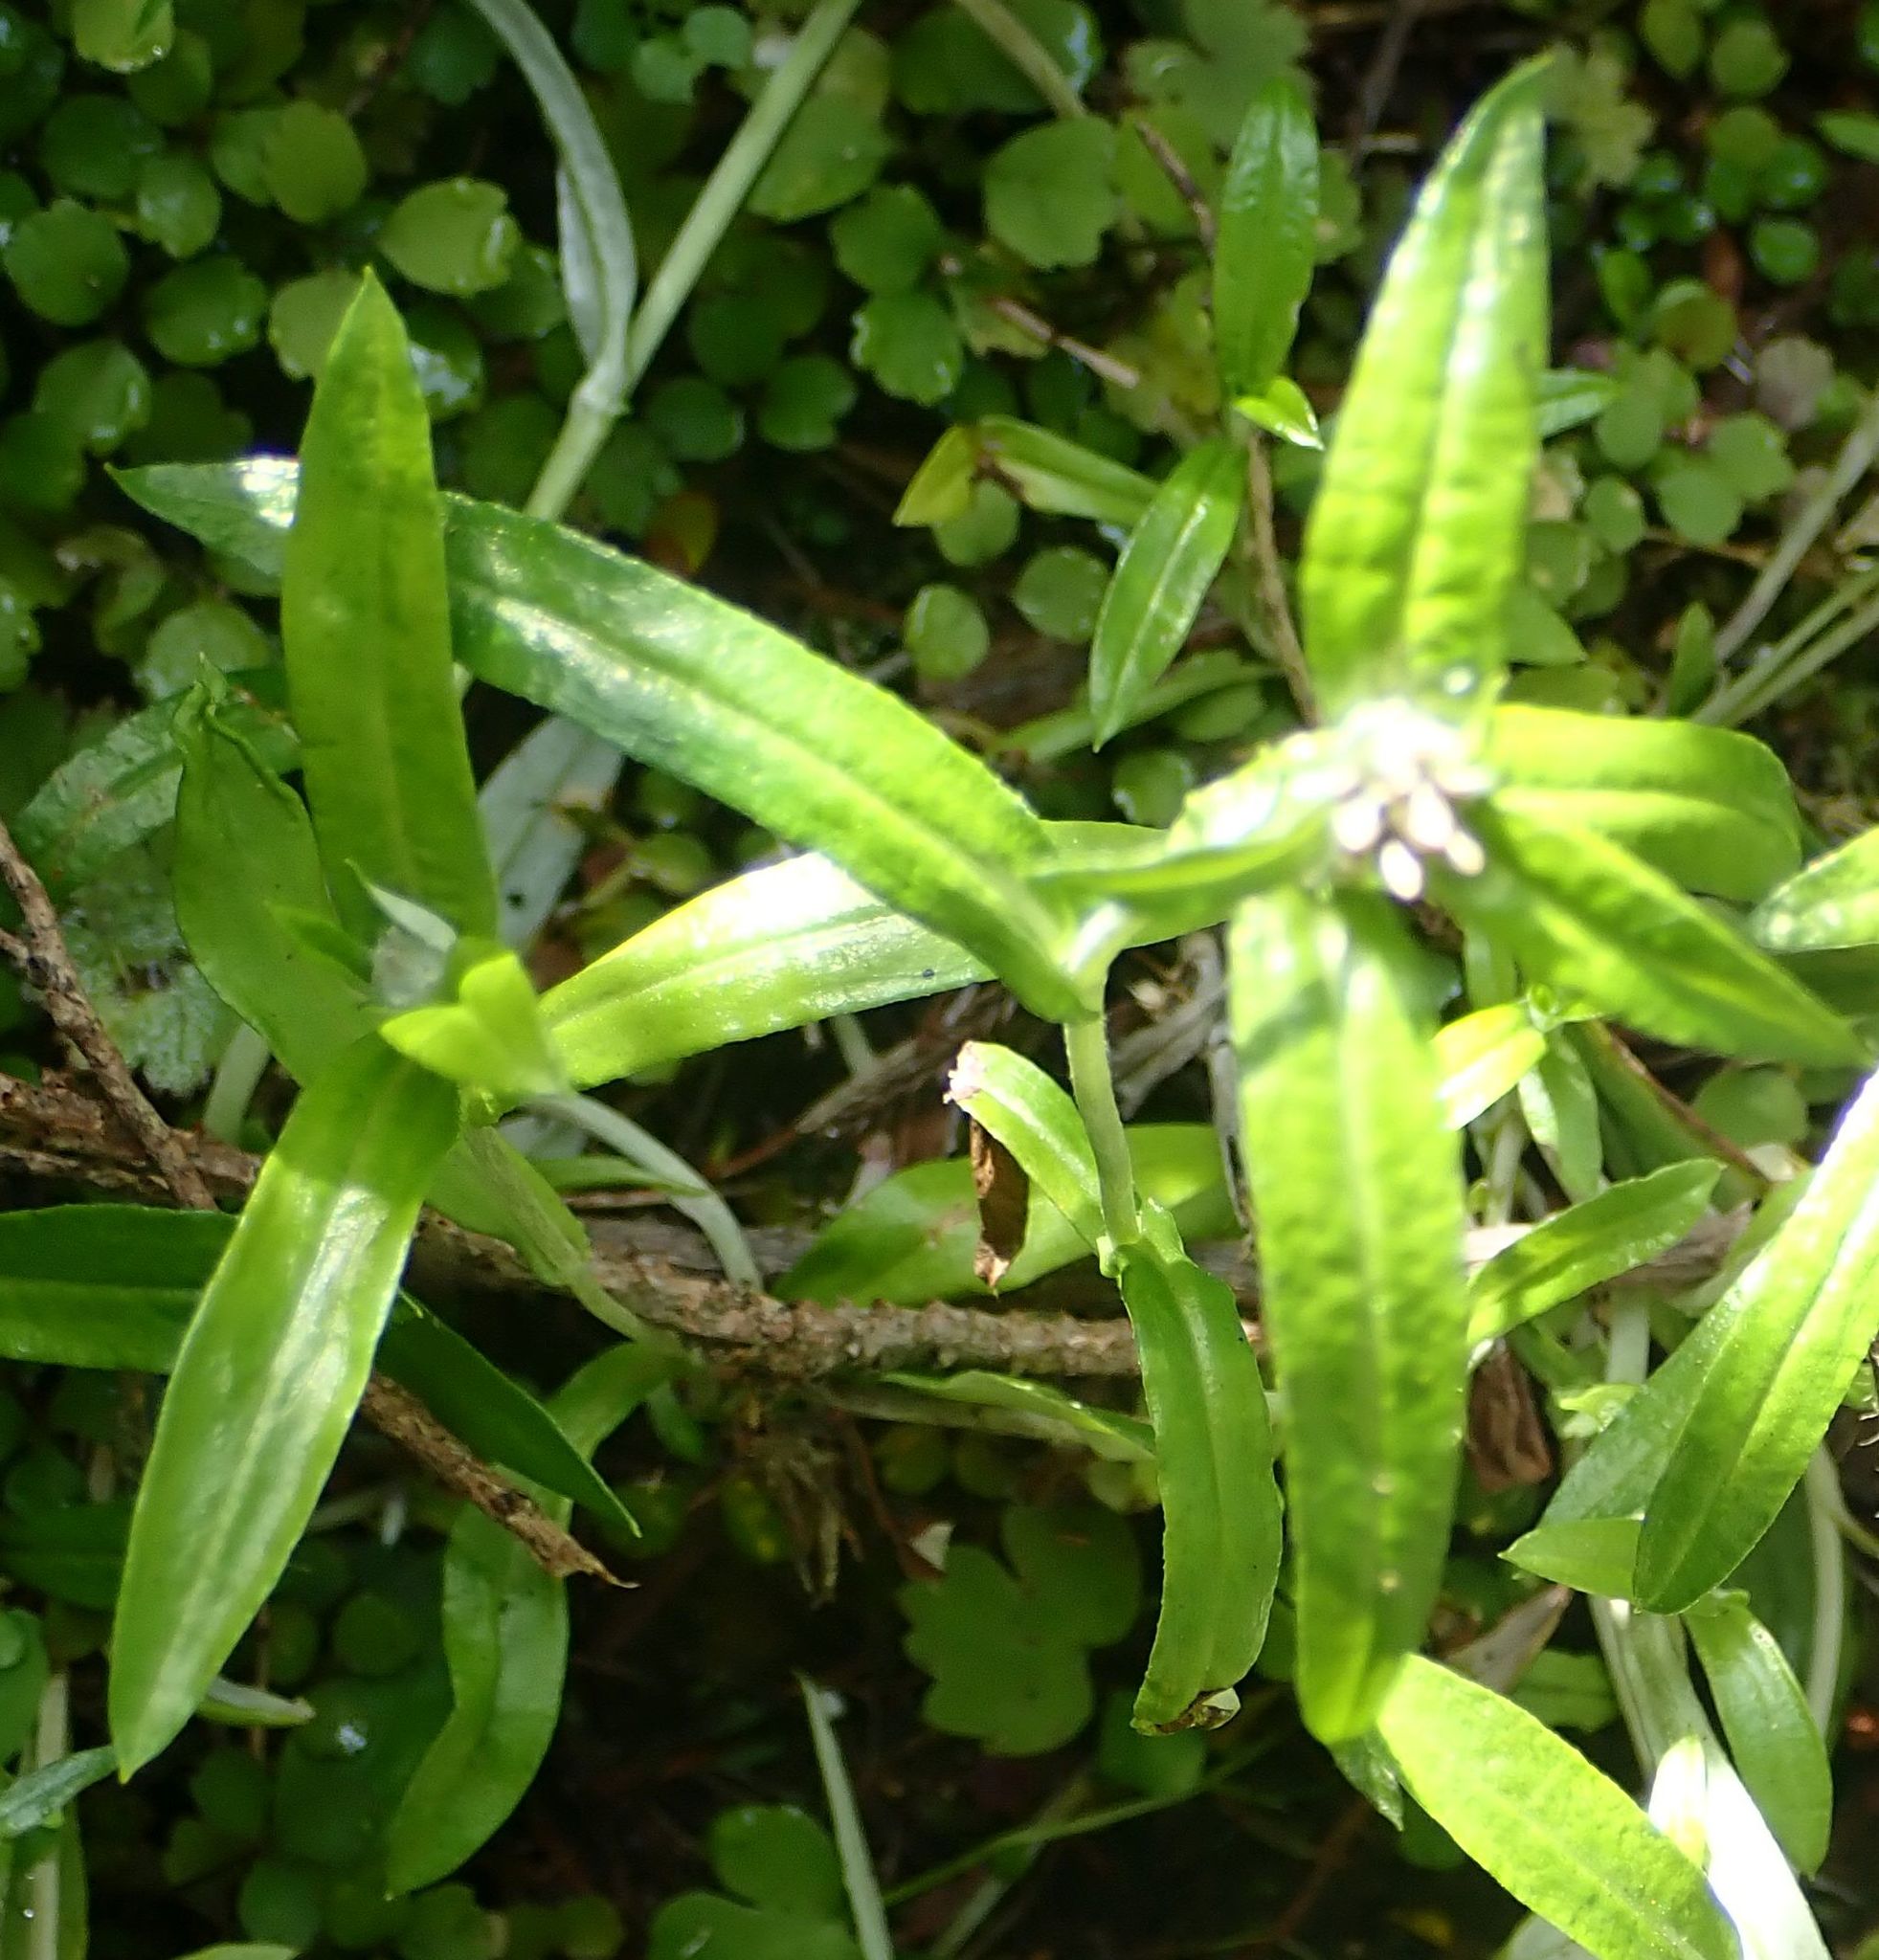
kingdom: Plantae
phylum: Tracheophyta
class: Magnoliopsida
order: Asterales
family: Asteraceae
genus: Euchiton
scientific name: Euchiton limosus
